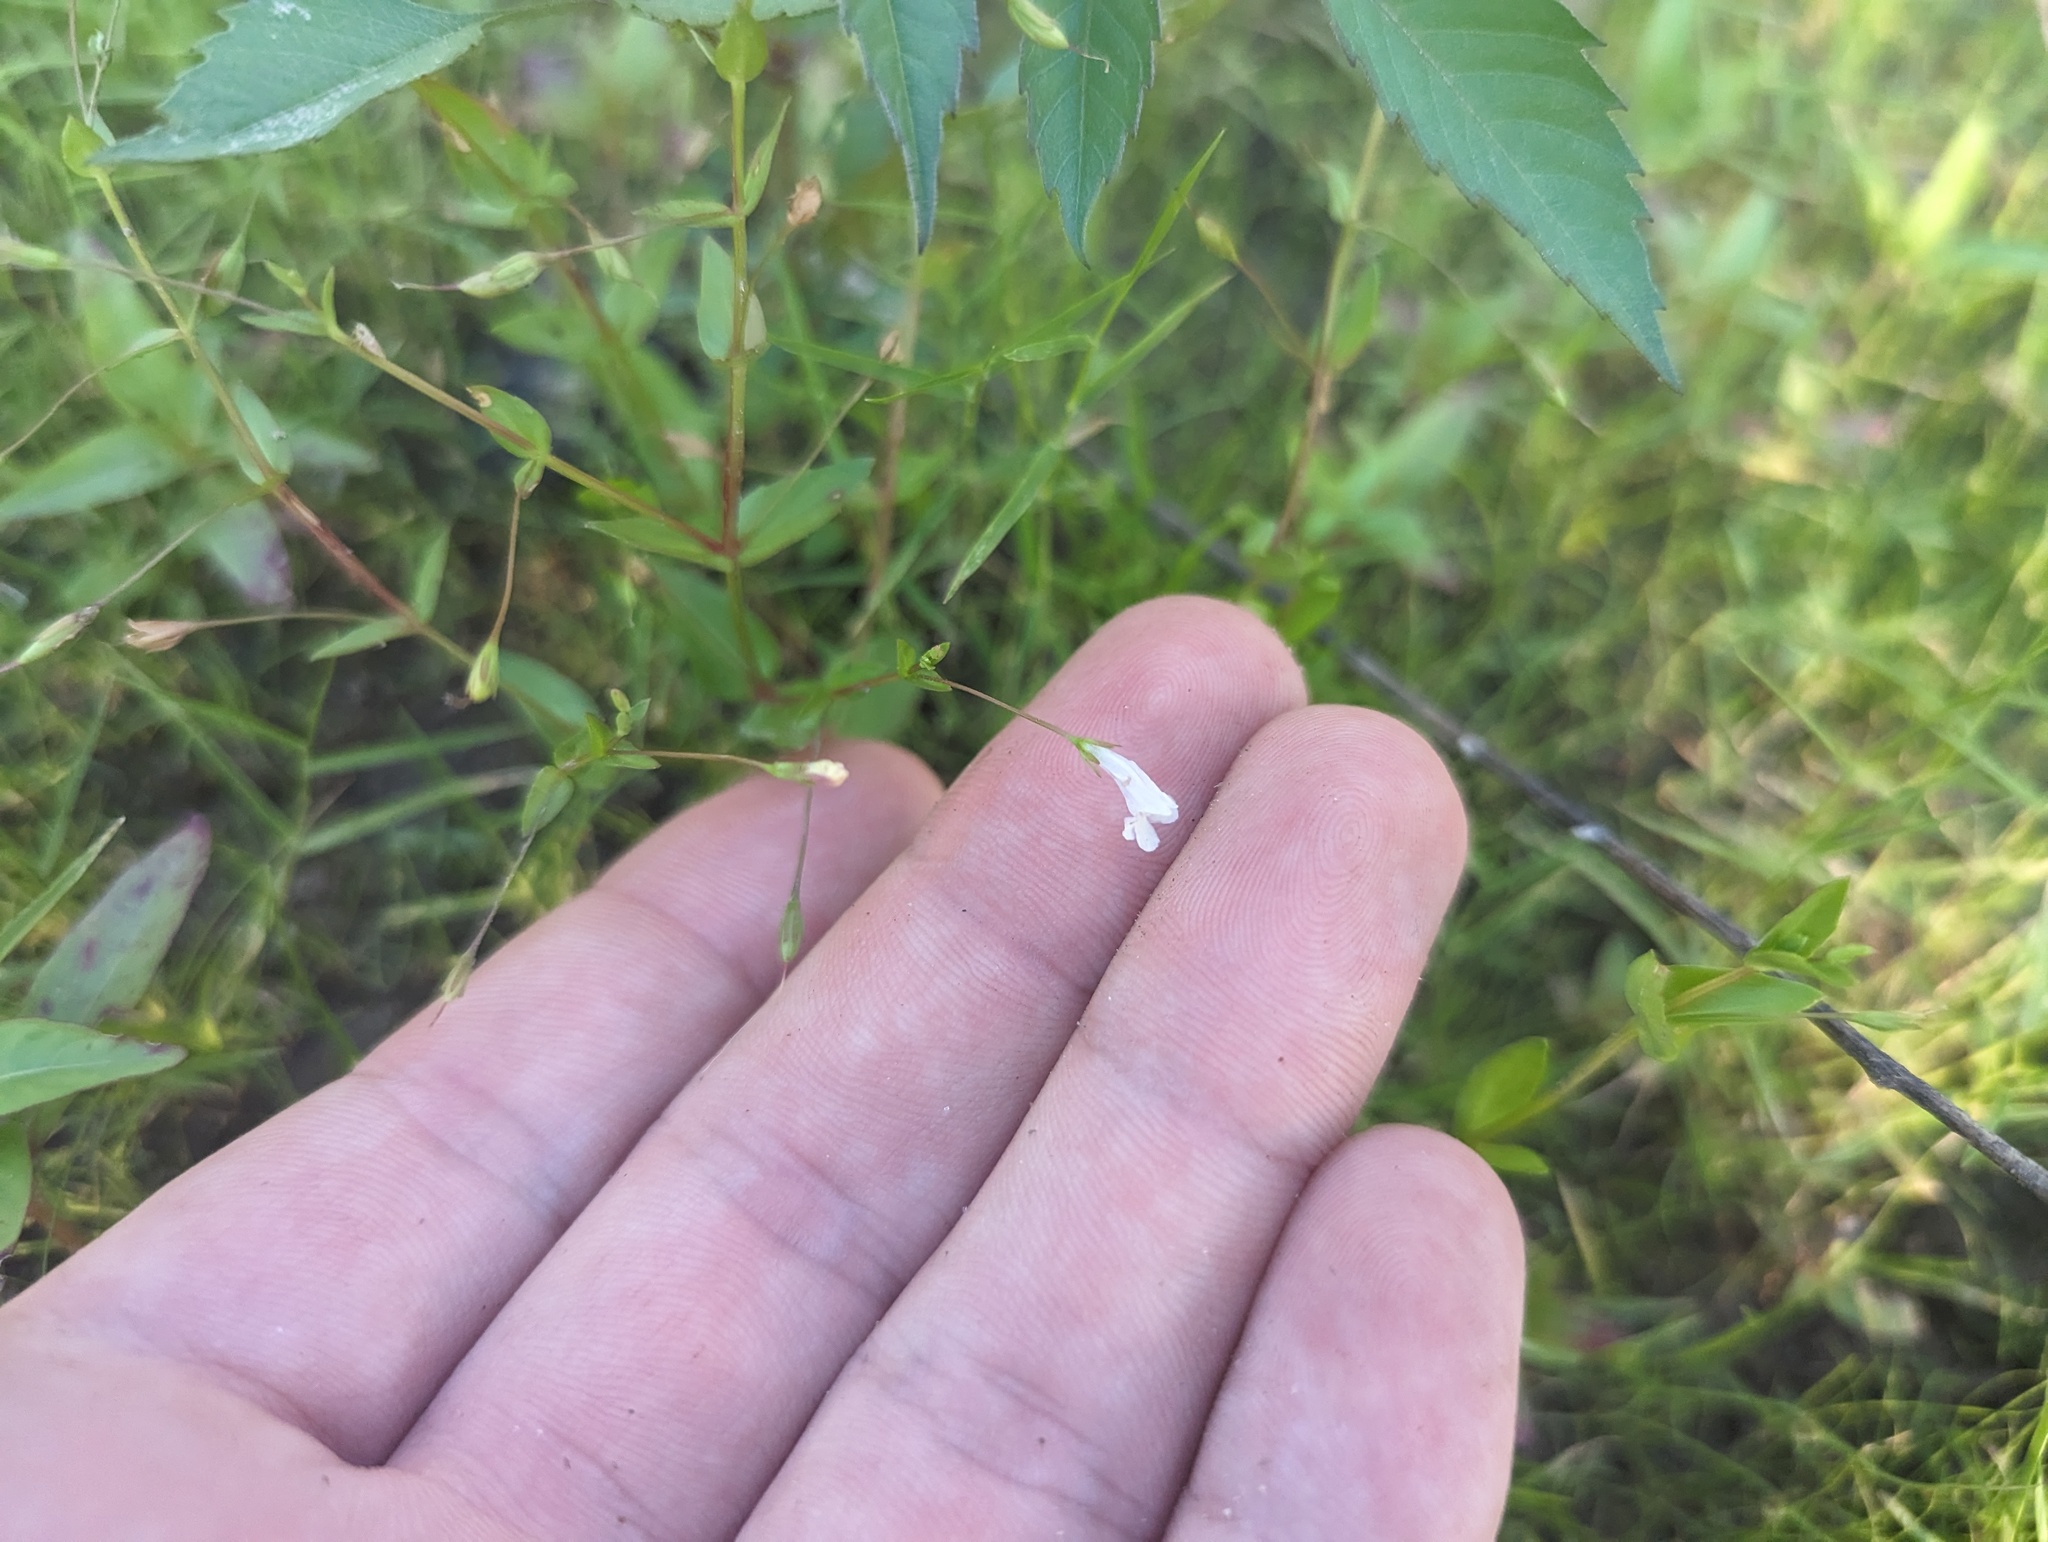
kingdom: Plantae
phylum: Tracheophyta
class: Magnoliopsida
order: Lamiales
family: Linderniaceae
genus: Lindernia
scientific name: Lindernia dubia
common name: Annual false pimpernel
